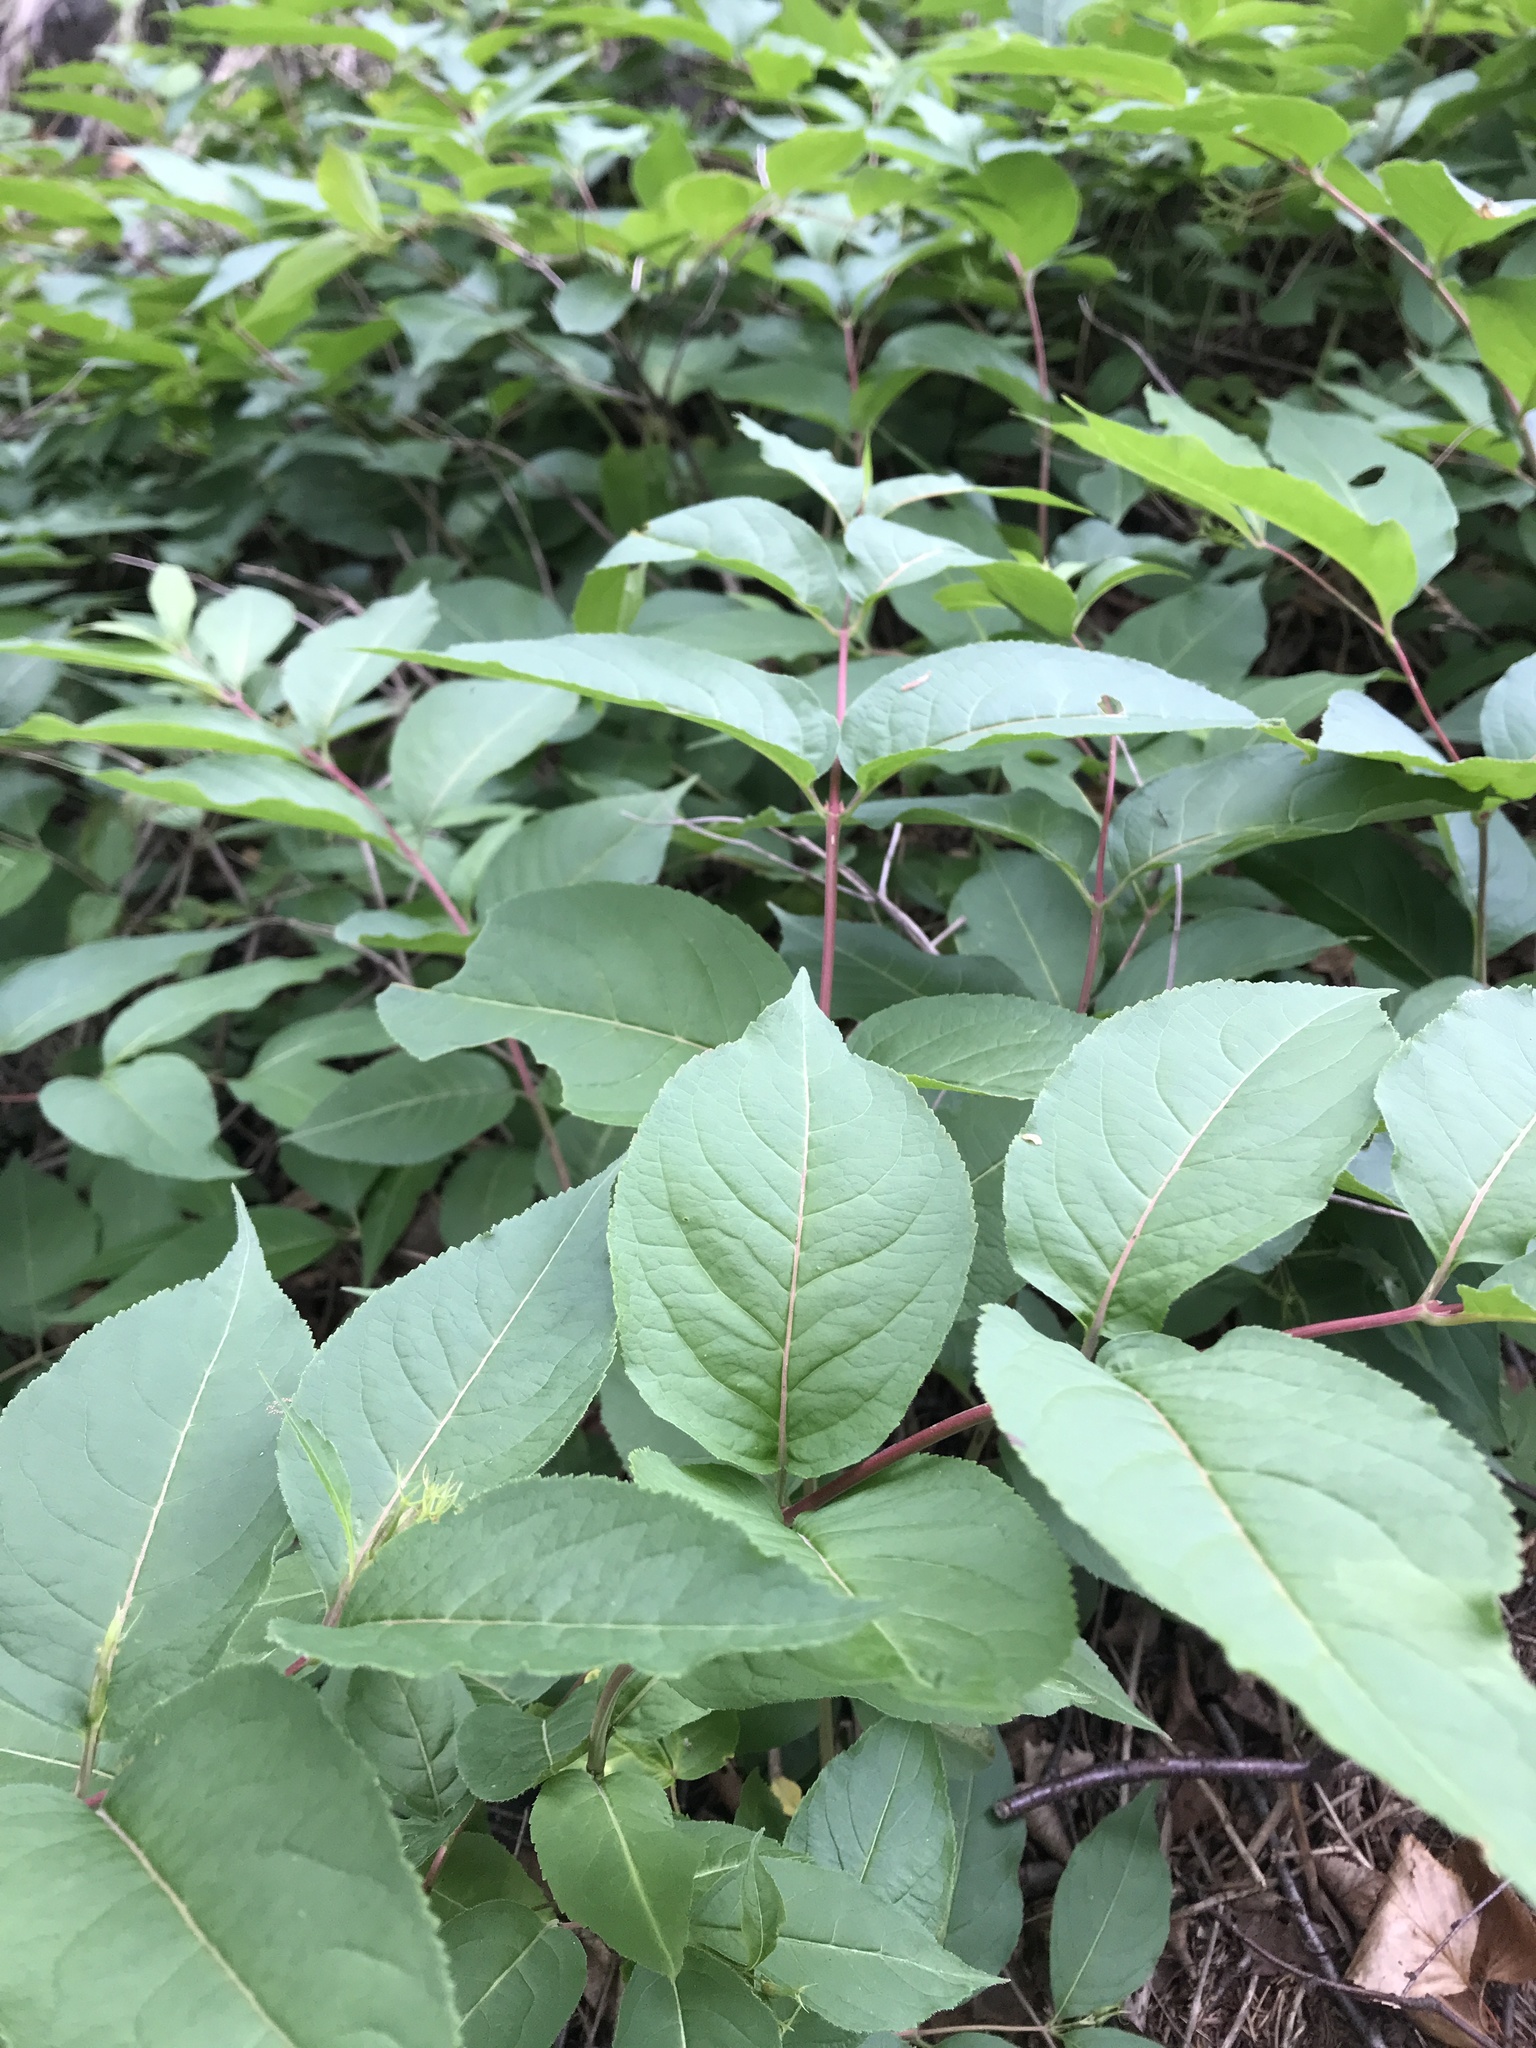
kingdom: Plantae
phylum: Tracheophyta
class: Magnoliopsida
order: Dipsacales
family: Caprifoliaceae
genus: Diervilla
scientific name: Diervilla lonicera
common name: Bush-honeysuckle
